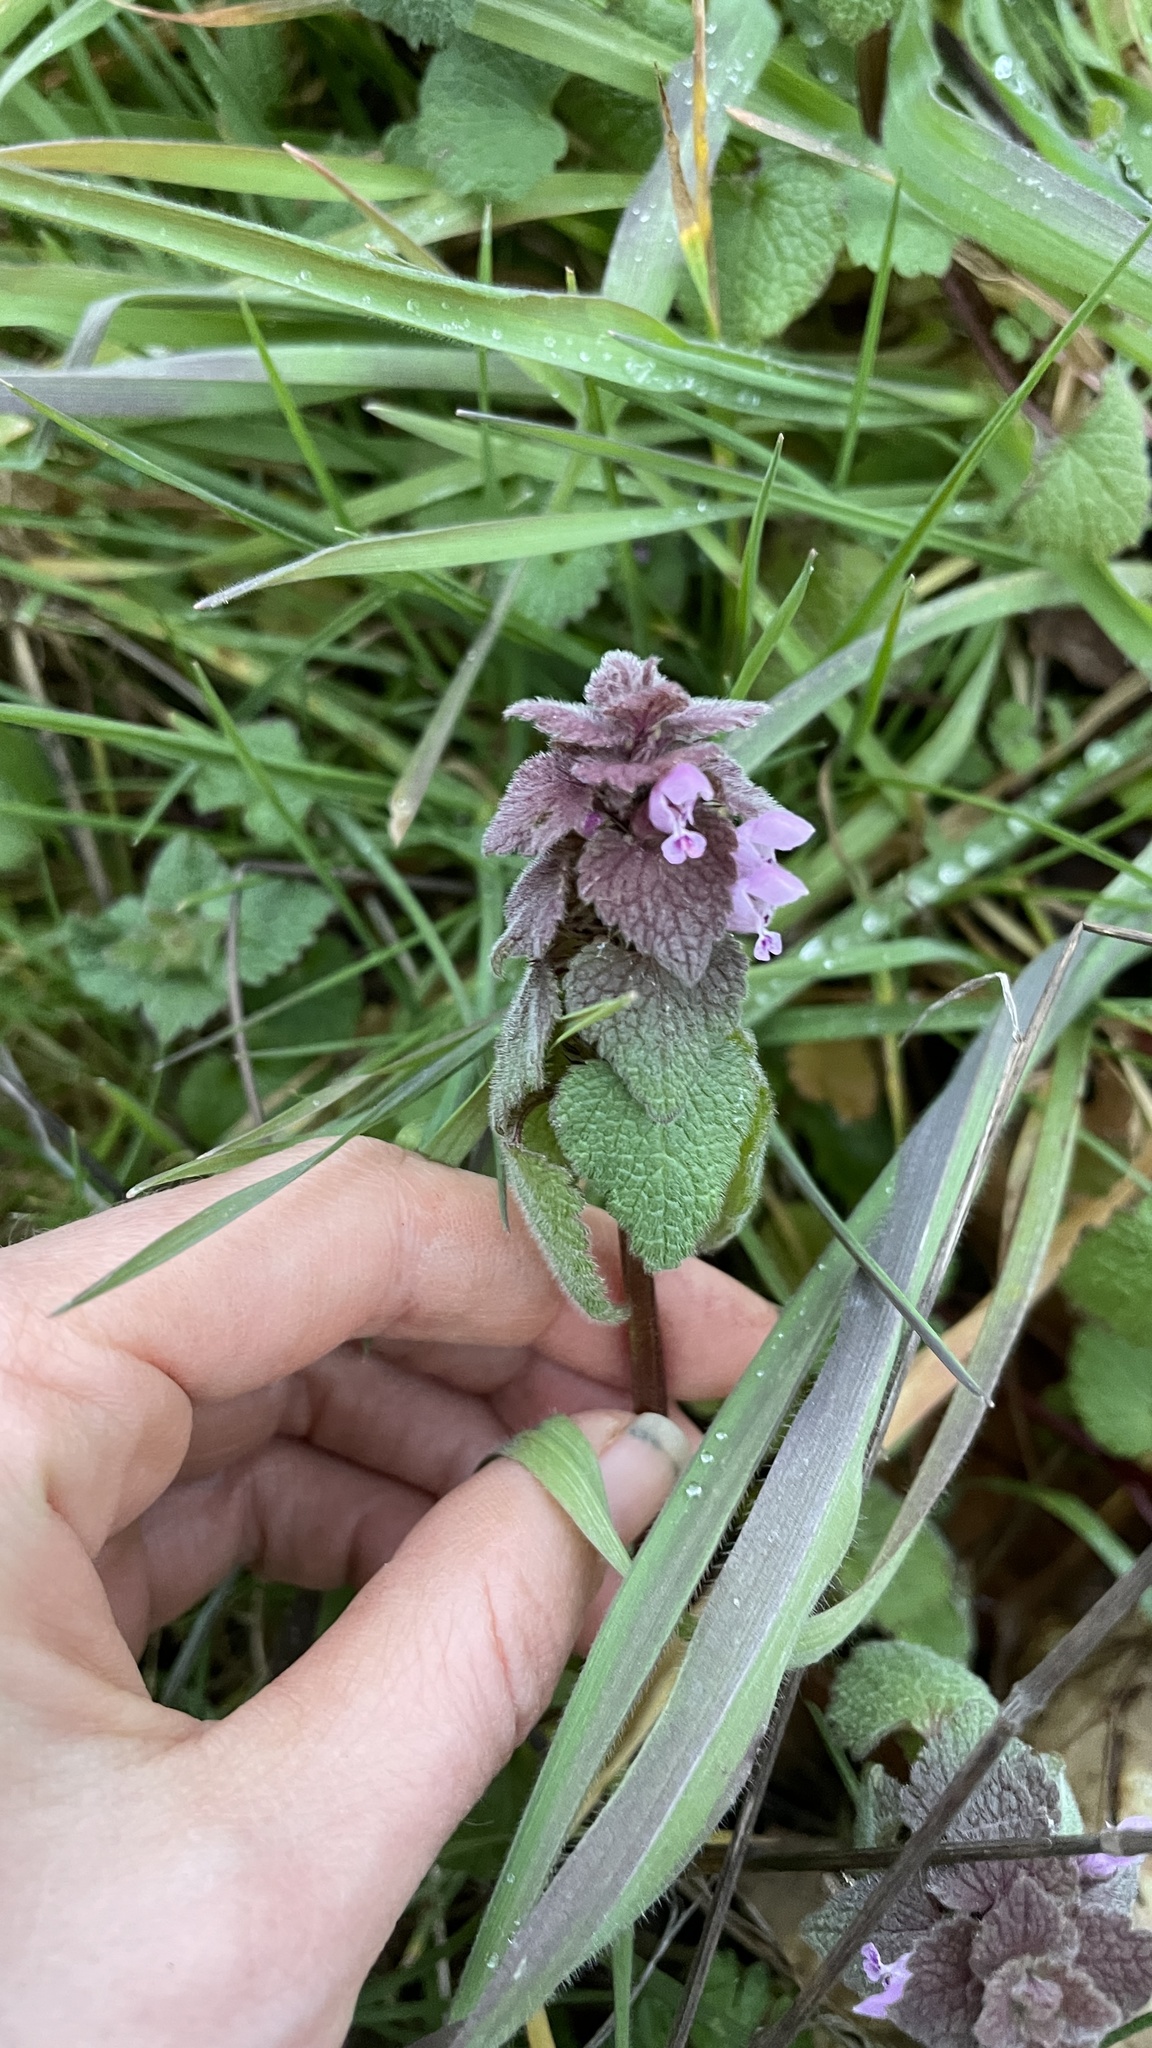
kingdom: Plantae
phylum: Tracheophyta
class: Magnoliopsida
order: Lamiales
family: Lamiaceae
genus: Lamium
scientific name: Lamium purpureum
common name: Red dead-nettle
